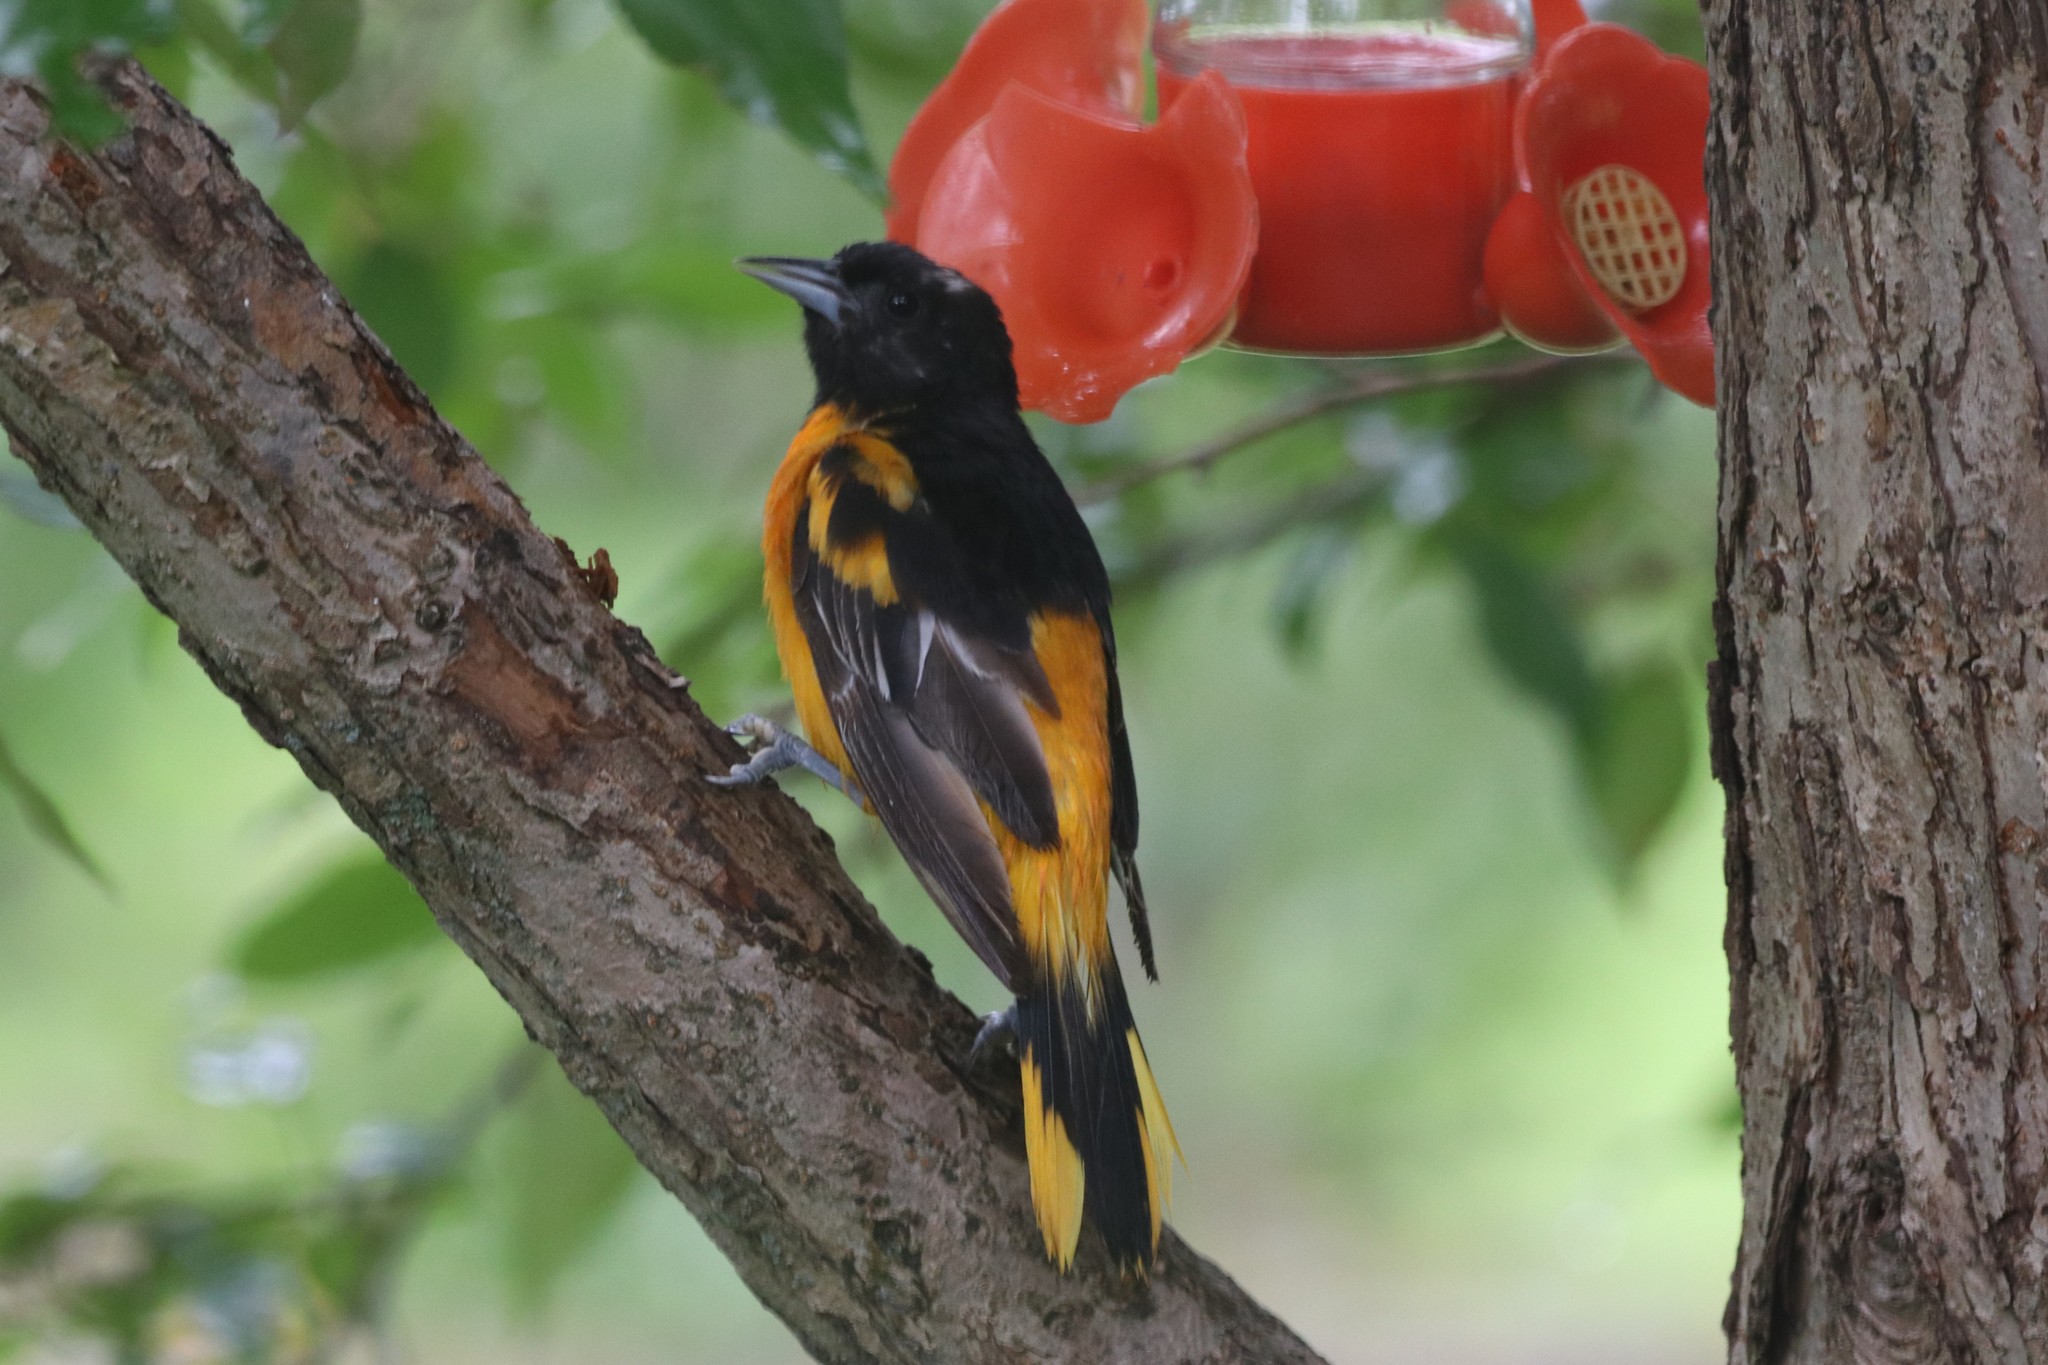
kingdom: Animalia
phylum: Chordata
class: Aves
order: Passeriformes
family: Icteridae
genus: Icterus
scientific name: Icterus galbula
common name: Baltimore oriole
